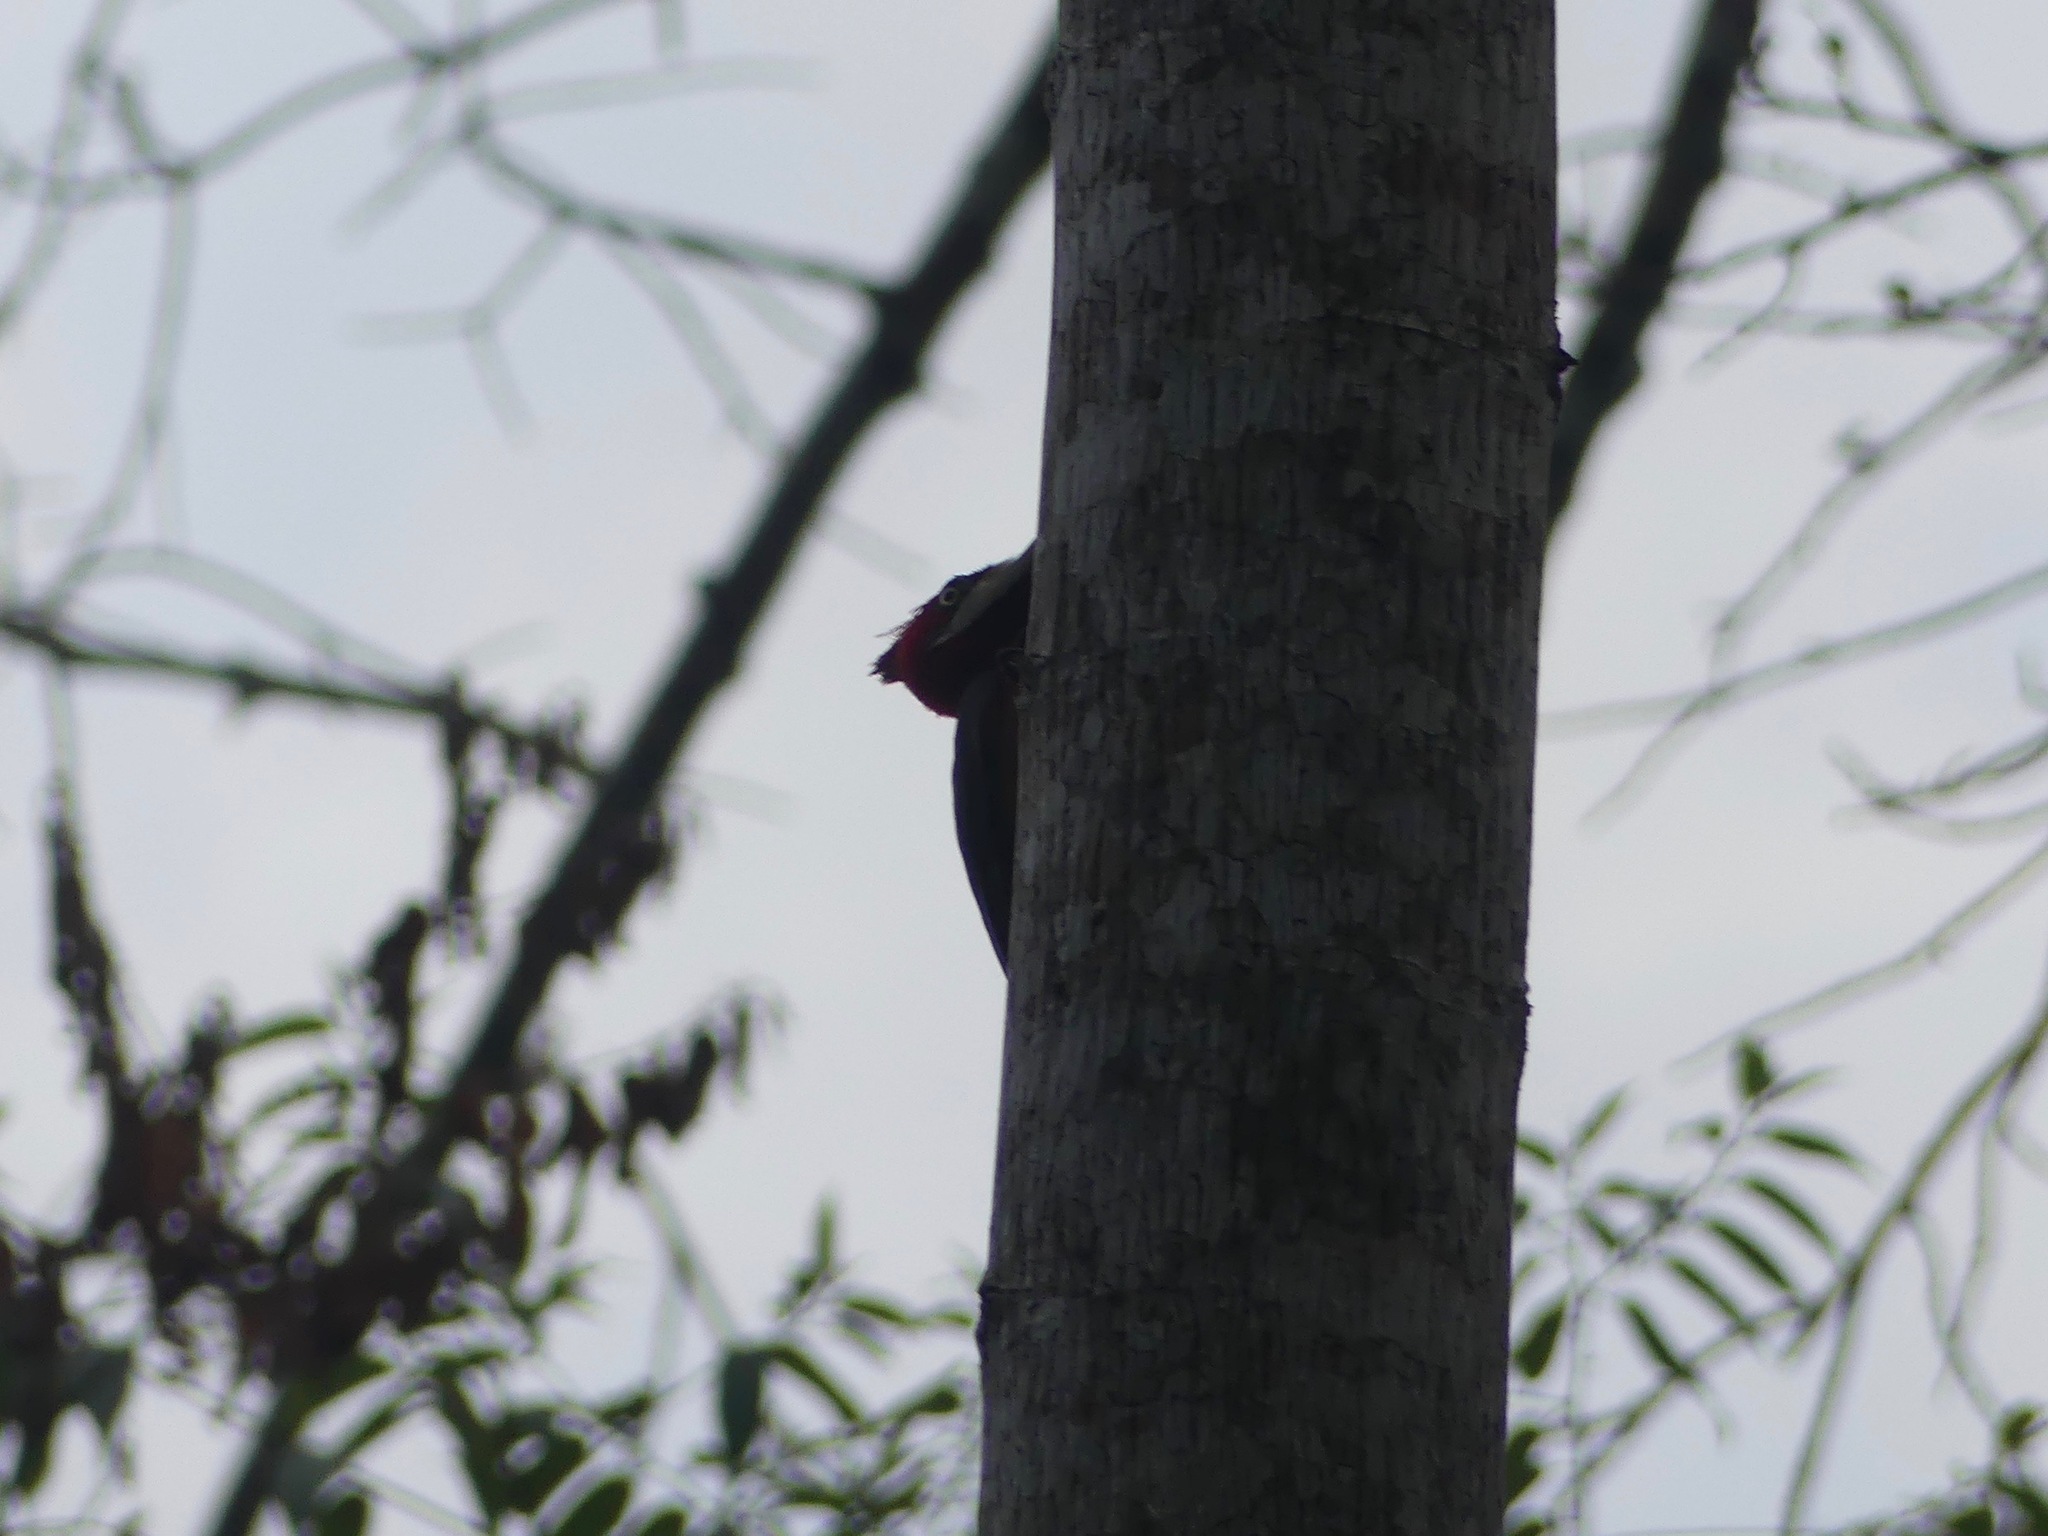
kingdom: Animalia
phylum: Chordata
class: Aves
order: Piciformes
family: Picidae
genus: Campephilus
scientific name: Campephilus melanoleucos
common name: Crimson-crested woodpecker
